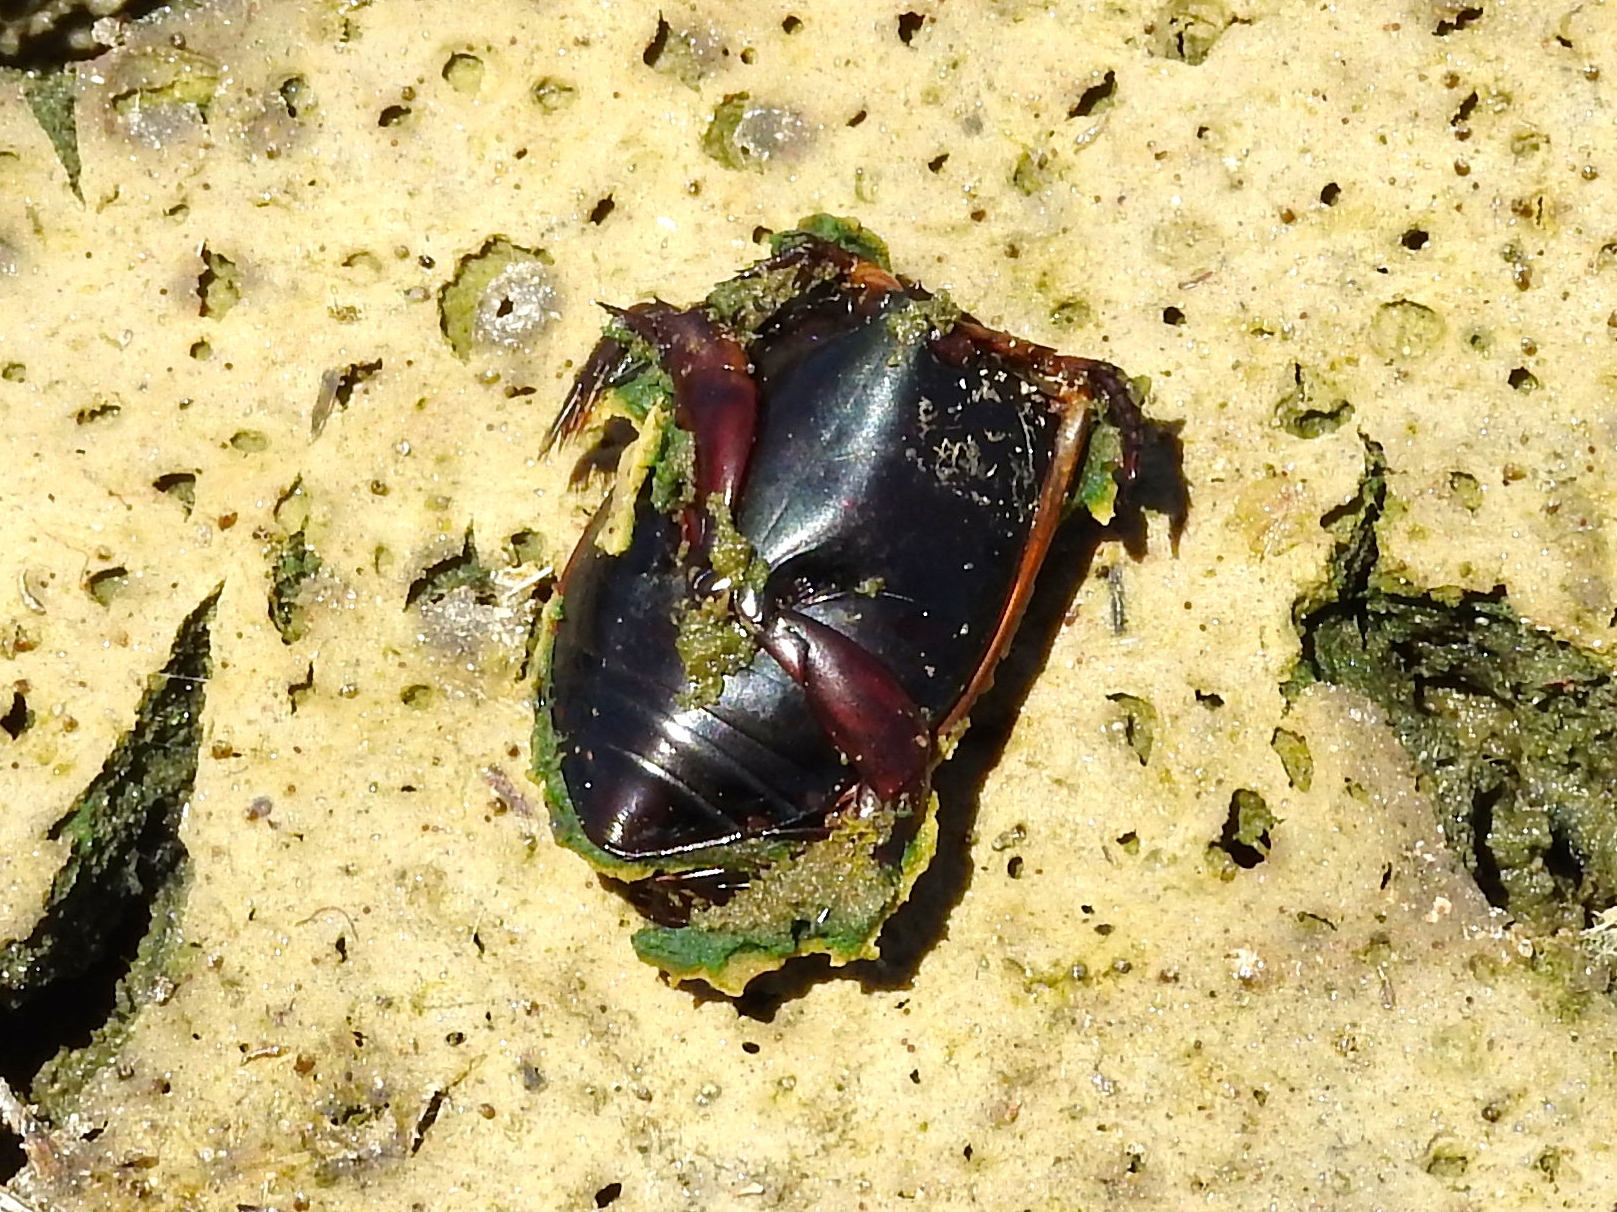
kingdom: Animalia
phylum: Arthropoda
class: Insecta
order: Coleoptera
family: Dytiscidae
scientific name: Dytiscidae
